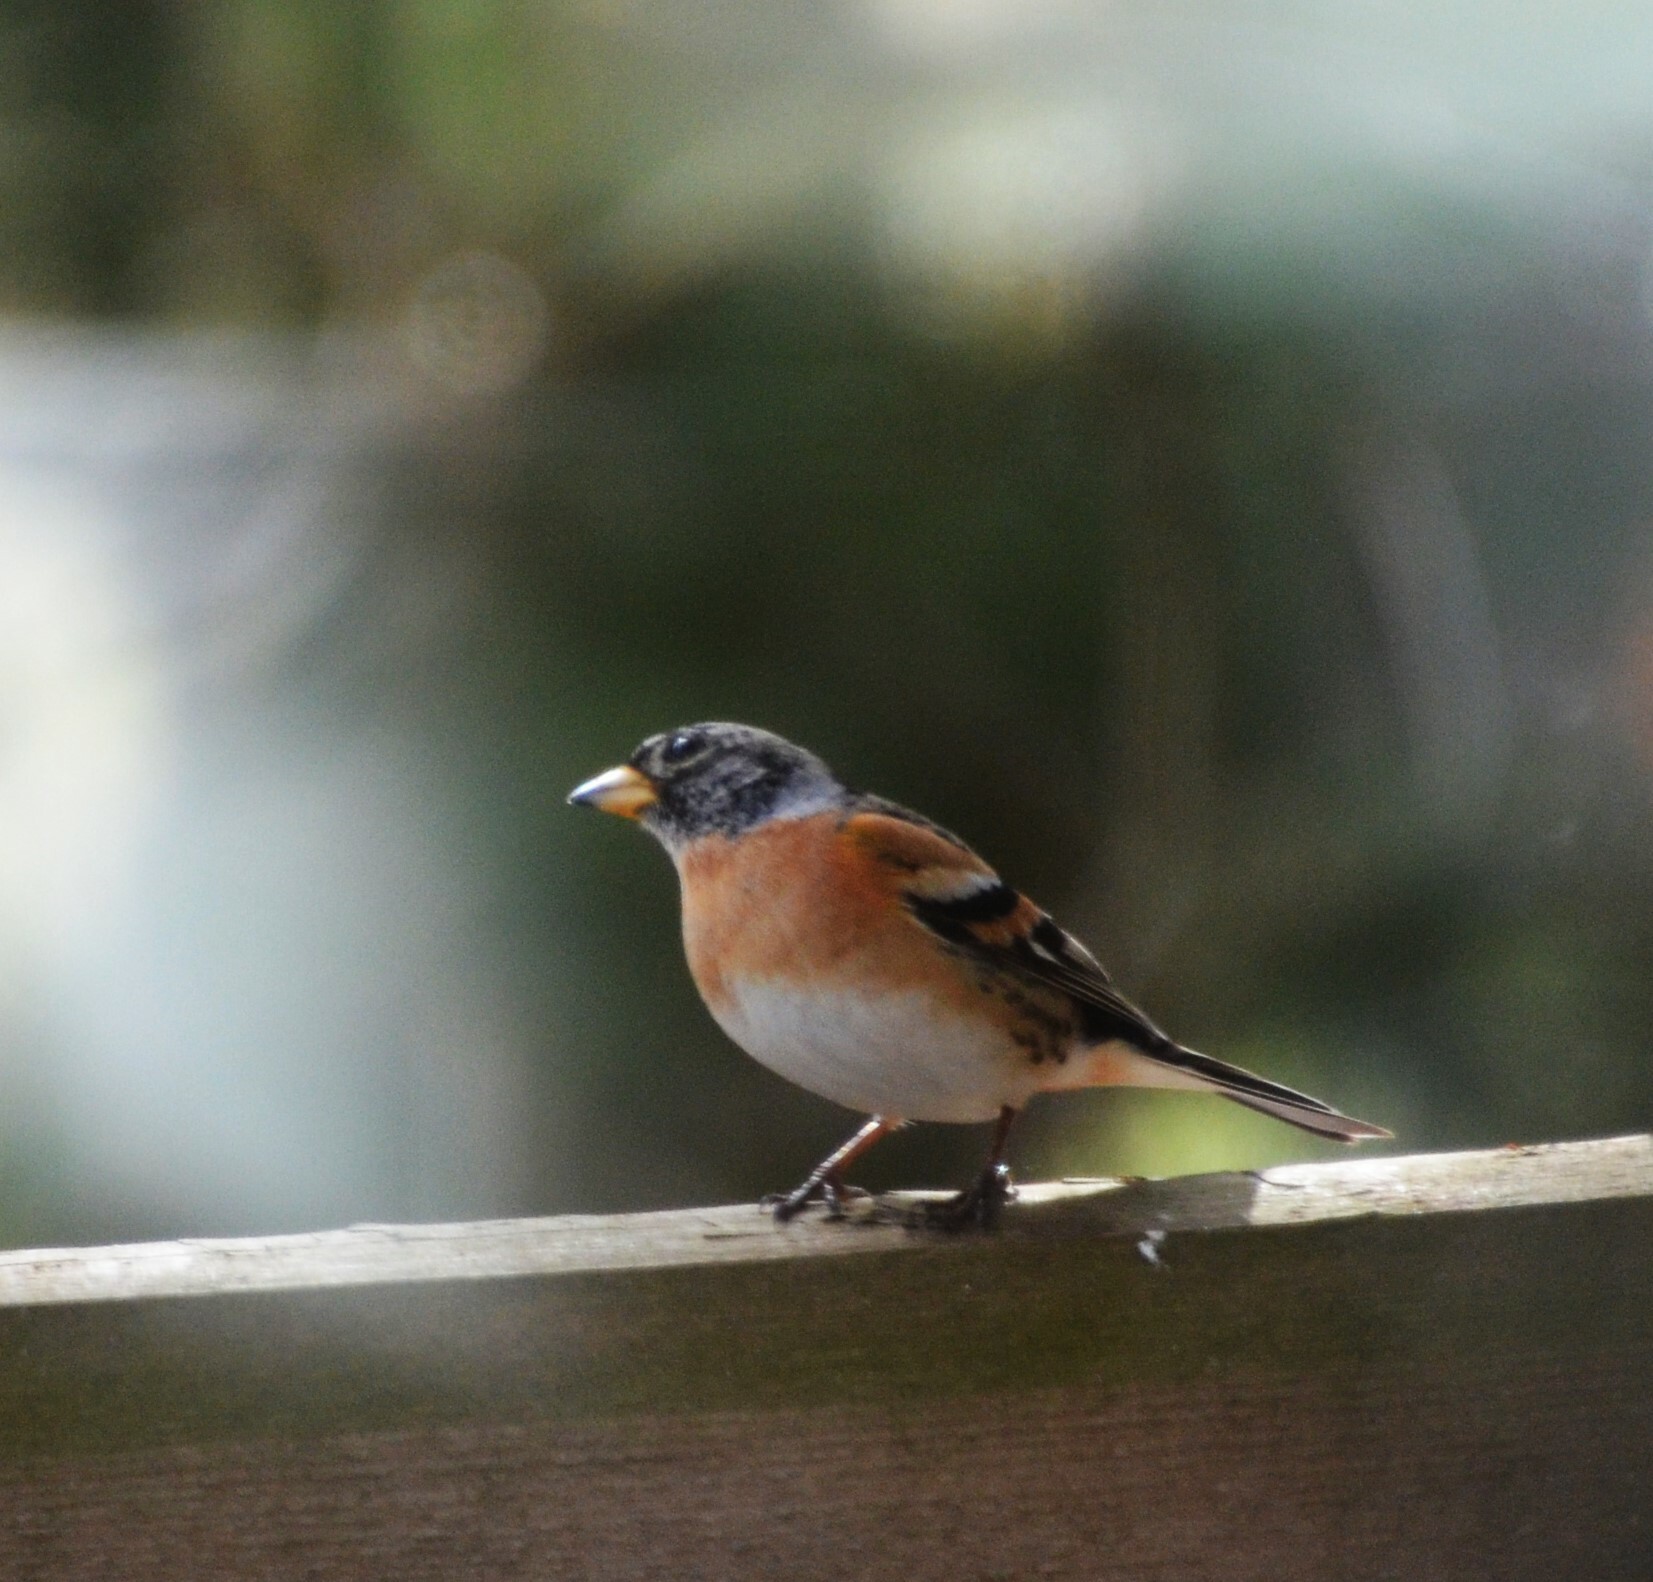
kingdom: Animalia
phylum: Chordata
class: Aves
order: Passeriformes
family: Fringillidae
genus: Fringilla
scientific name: Fringilla montifringilla
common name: Brambling
